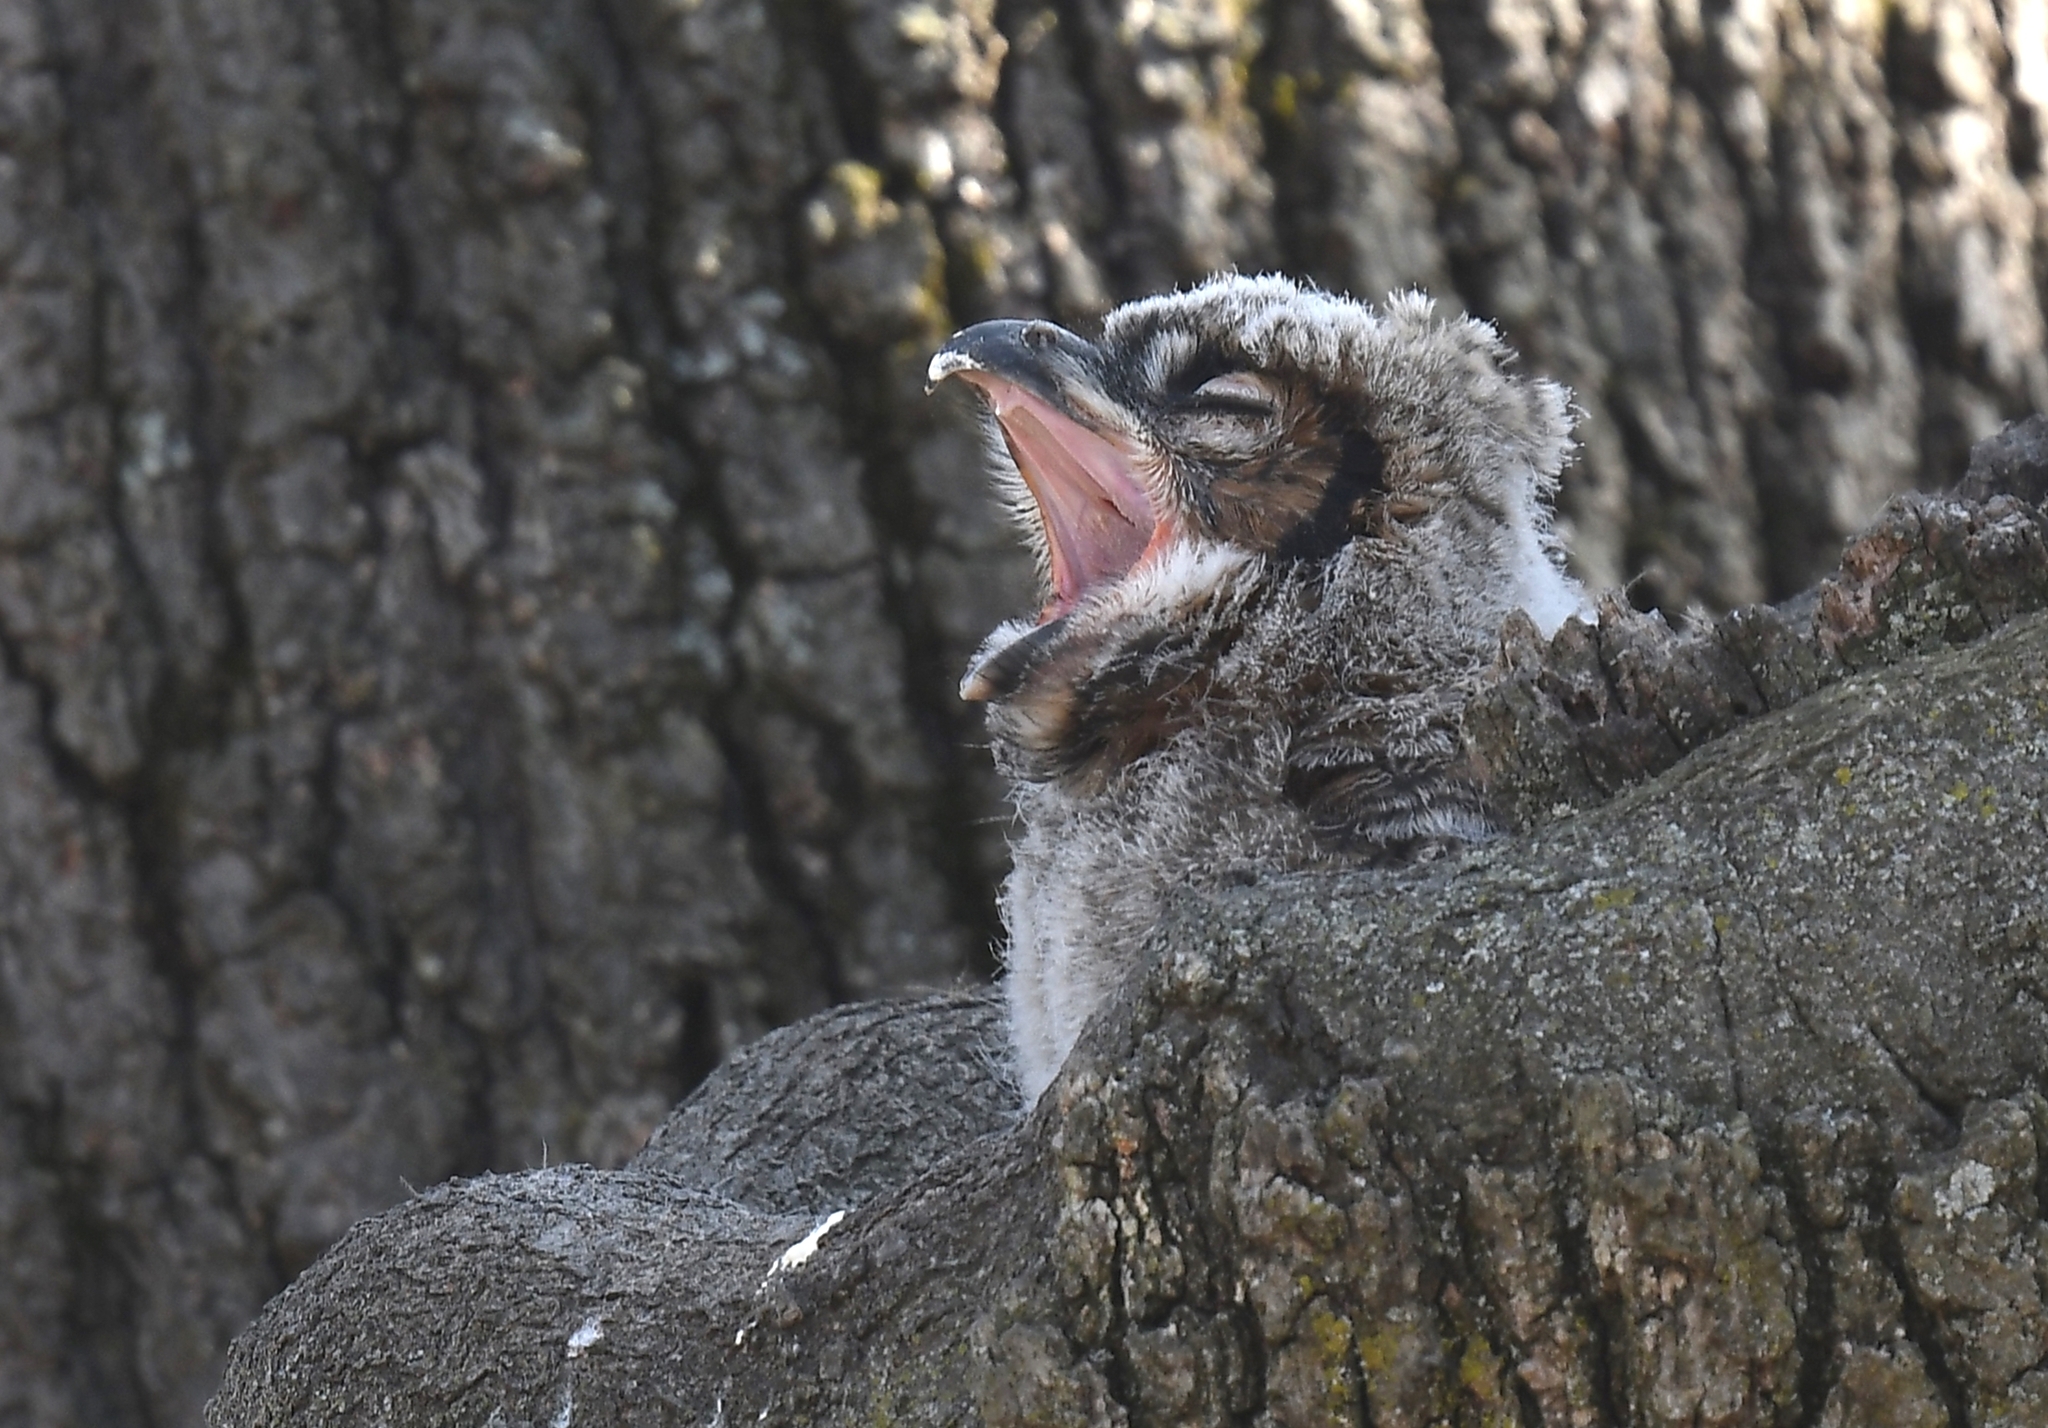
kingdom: Animalia
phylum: Chordata
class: Aves
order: Strigiformes
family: Strigidae
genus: Bubo
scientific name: Bubo virginianus
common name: Great horned owl
